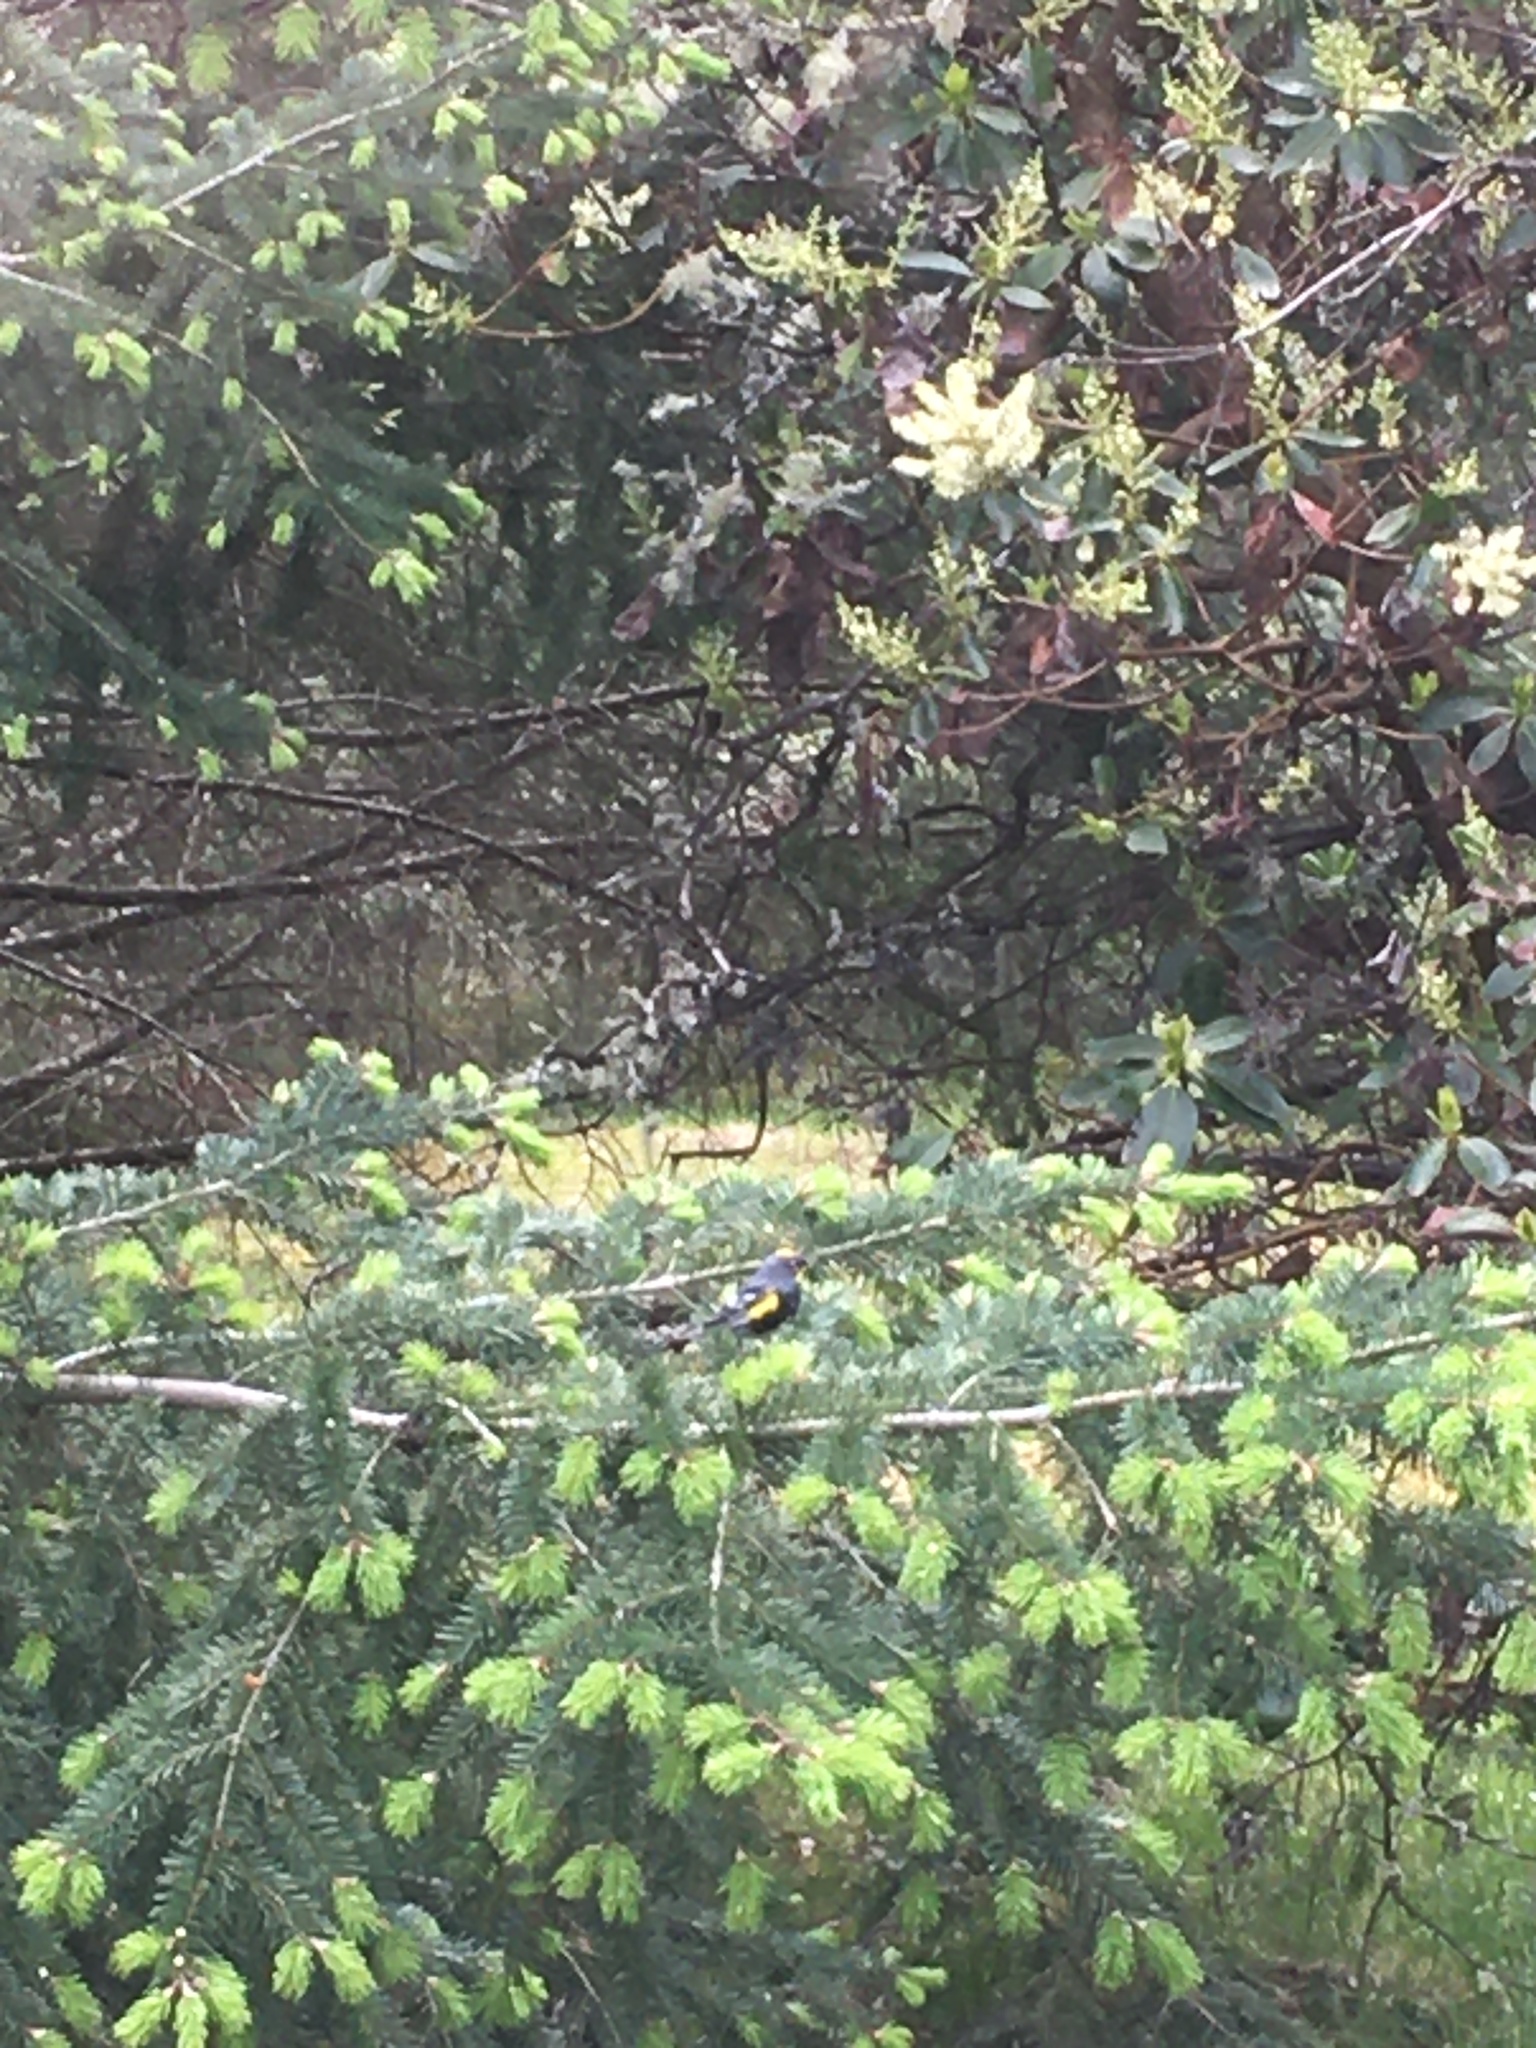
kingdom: Animalia
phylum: Chordata
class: Aves
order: Passeriformes
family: Parulidae
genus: Setophaga
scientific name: Setophaga auduboni
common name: Audubon's warbler
